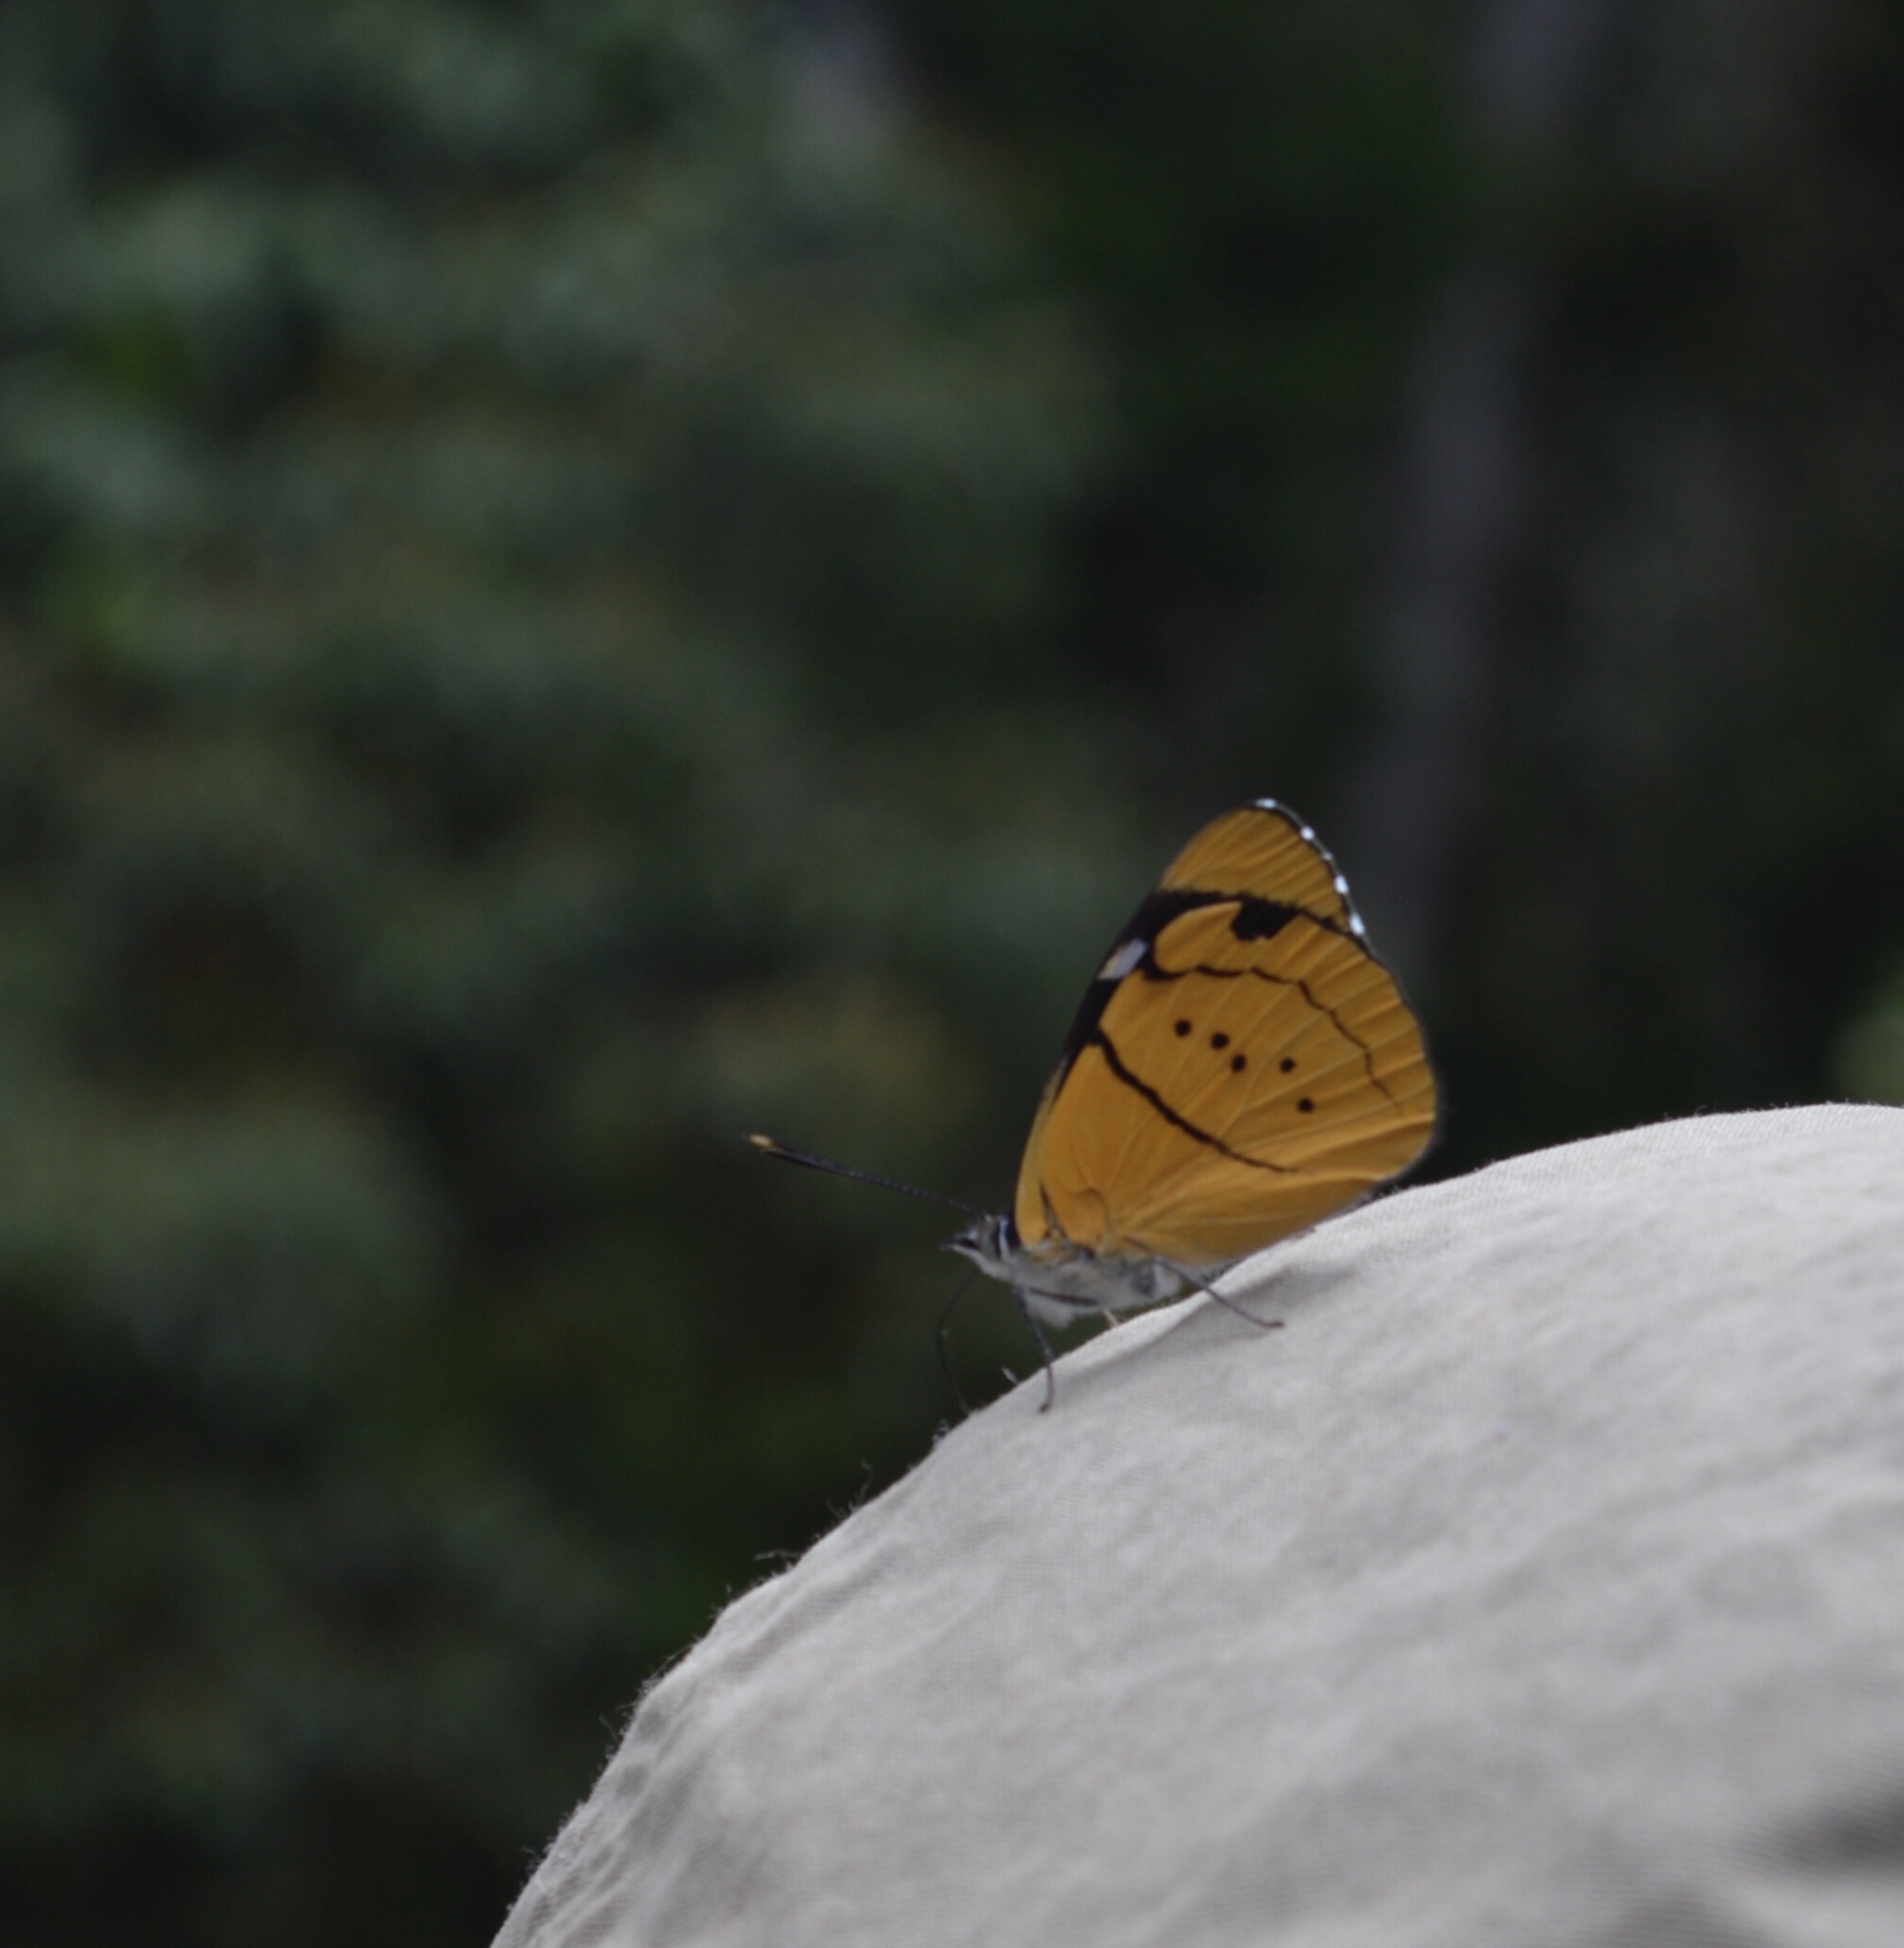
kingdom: Animalia
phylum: Arthropoda
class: Insecta
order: Lepidoptera
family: Nymphalidae
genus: Perisama
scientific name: Perisama tringa
